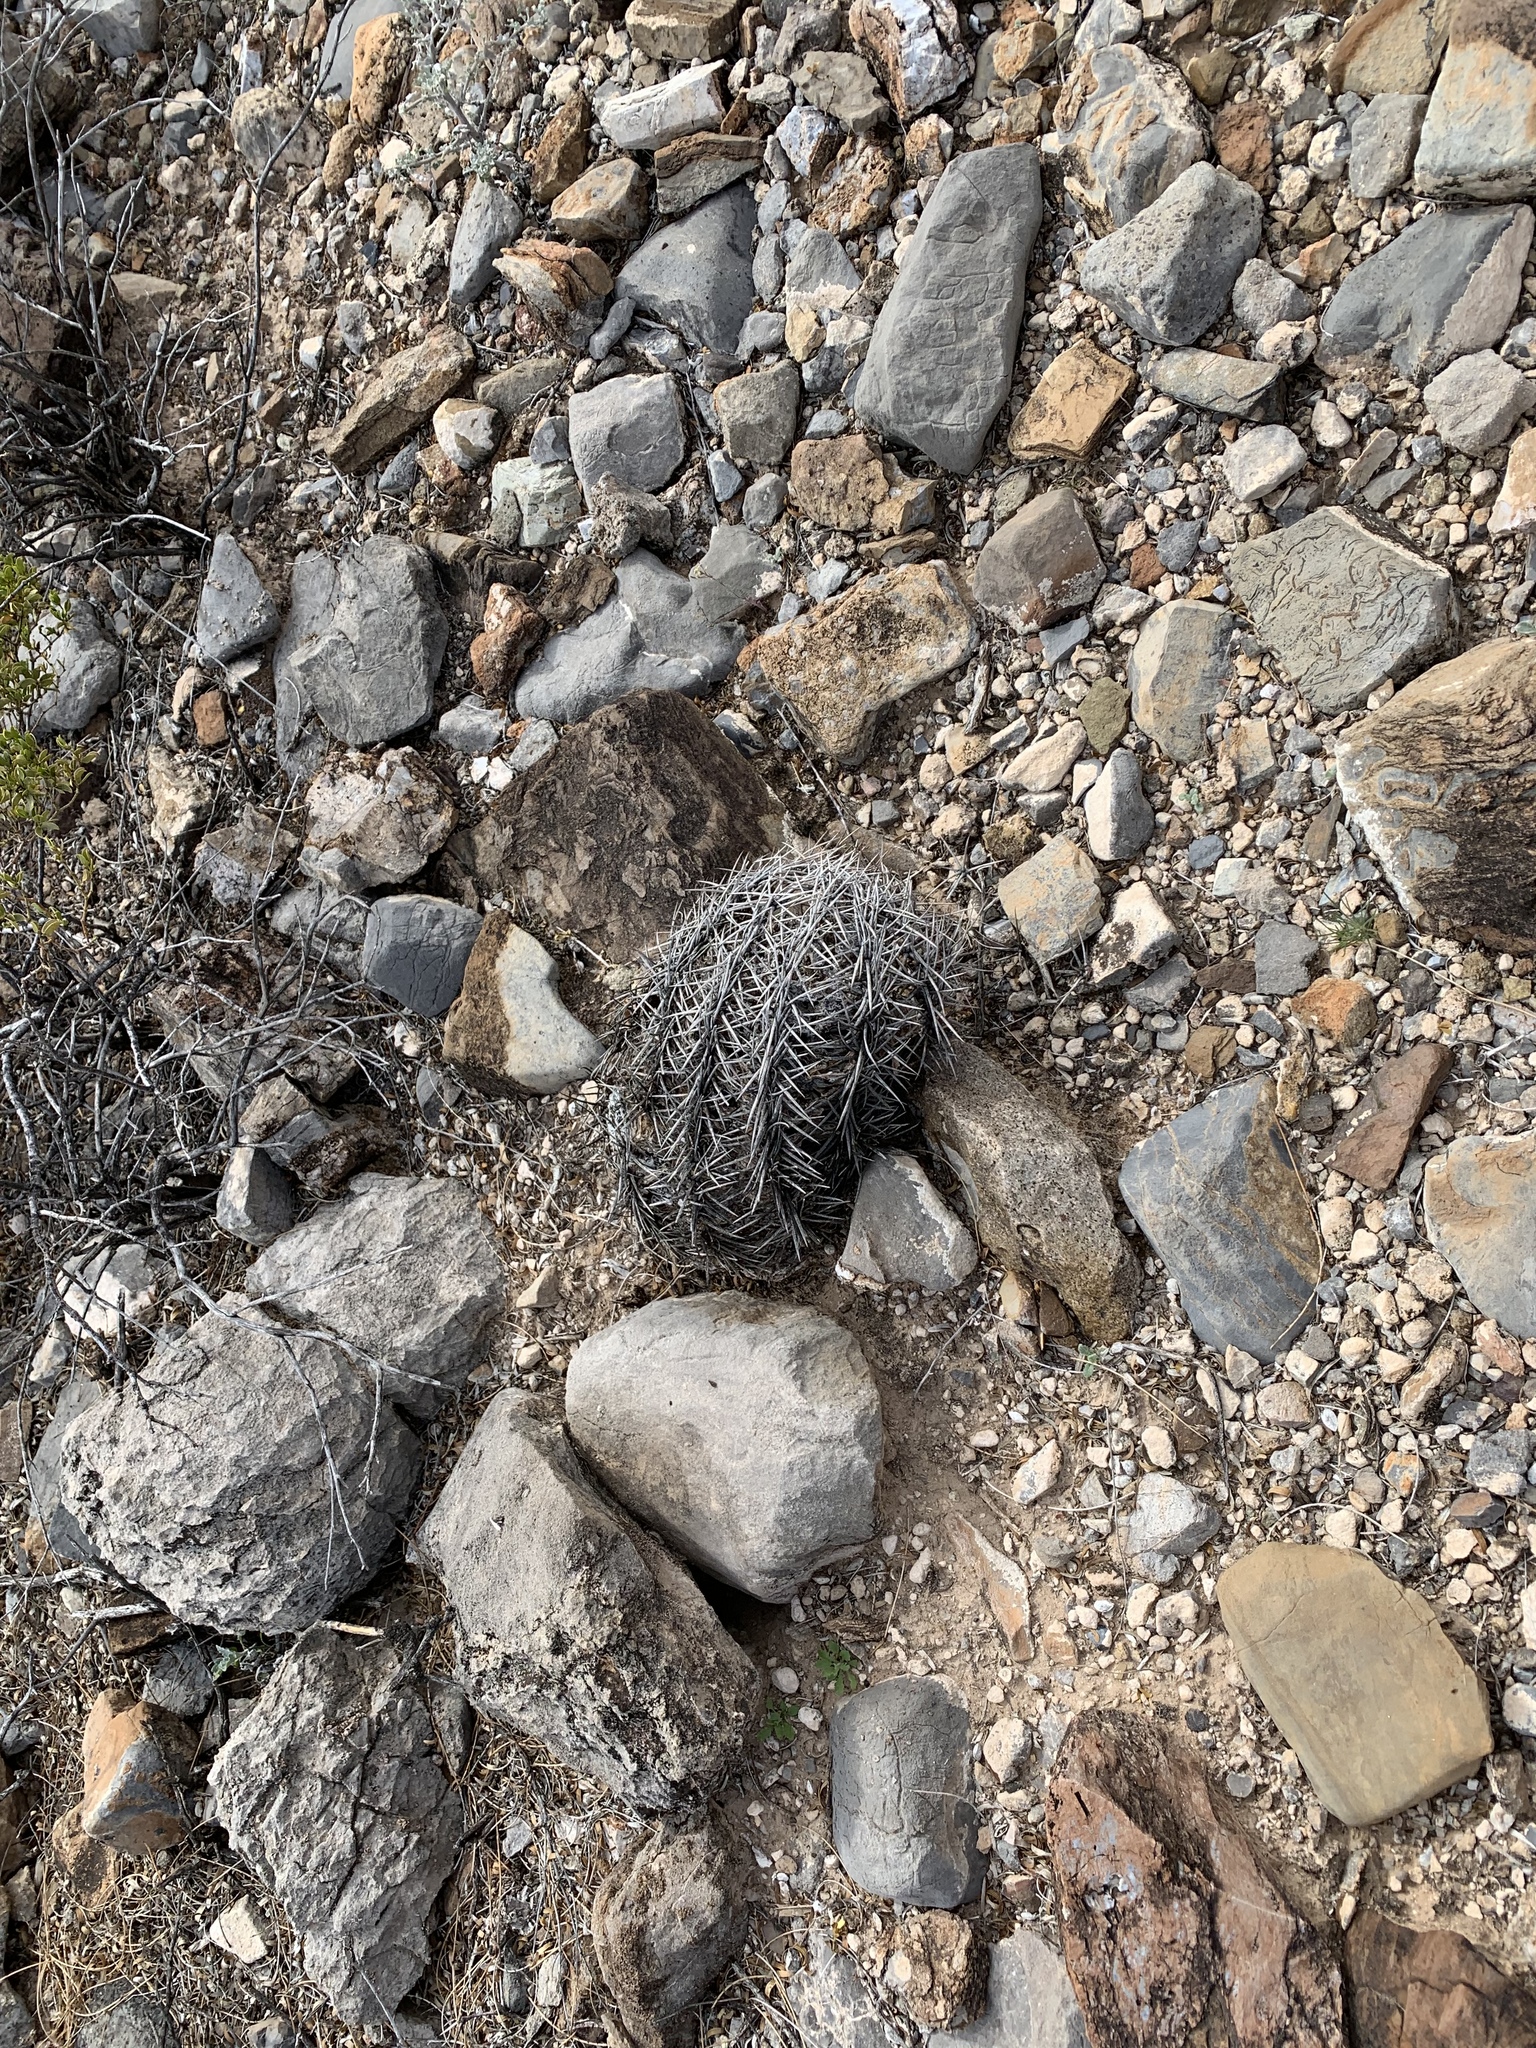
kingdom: Plantae
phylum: Tracheophyta
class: Magnoliopsida
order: Caryophyllales
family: Cactaceae
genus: Echinocactus
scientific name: Echinocactus horizonthalonius
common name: Devilshead
